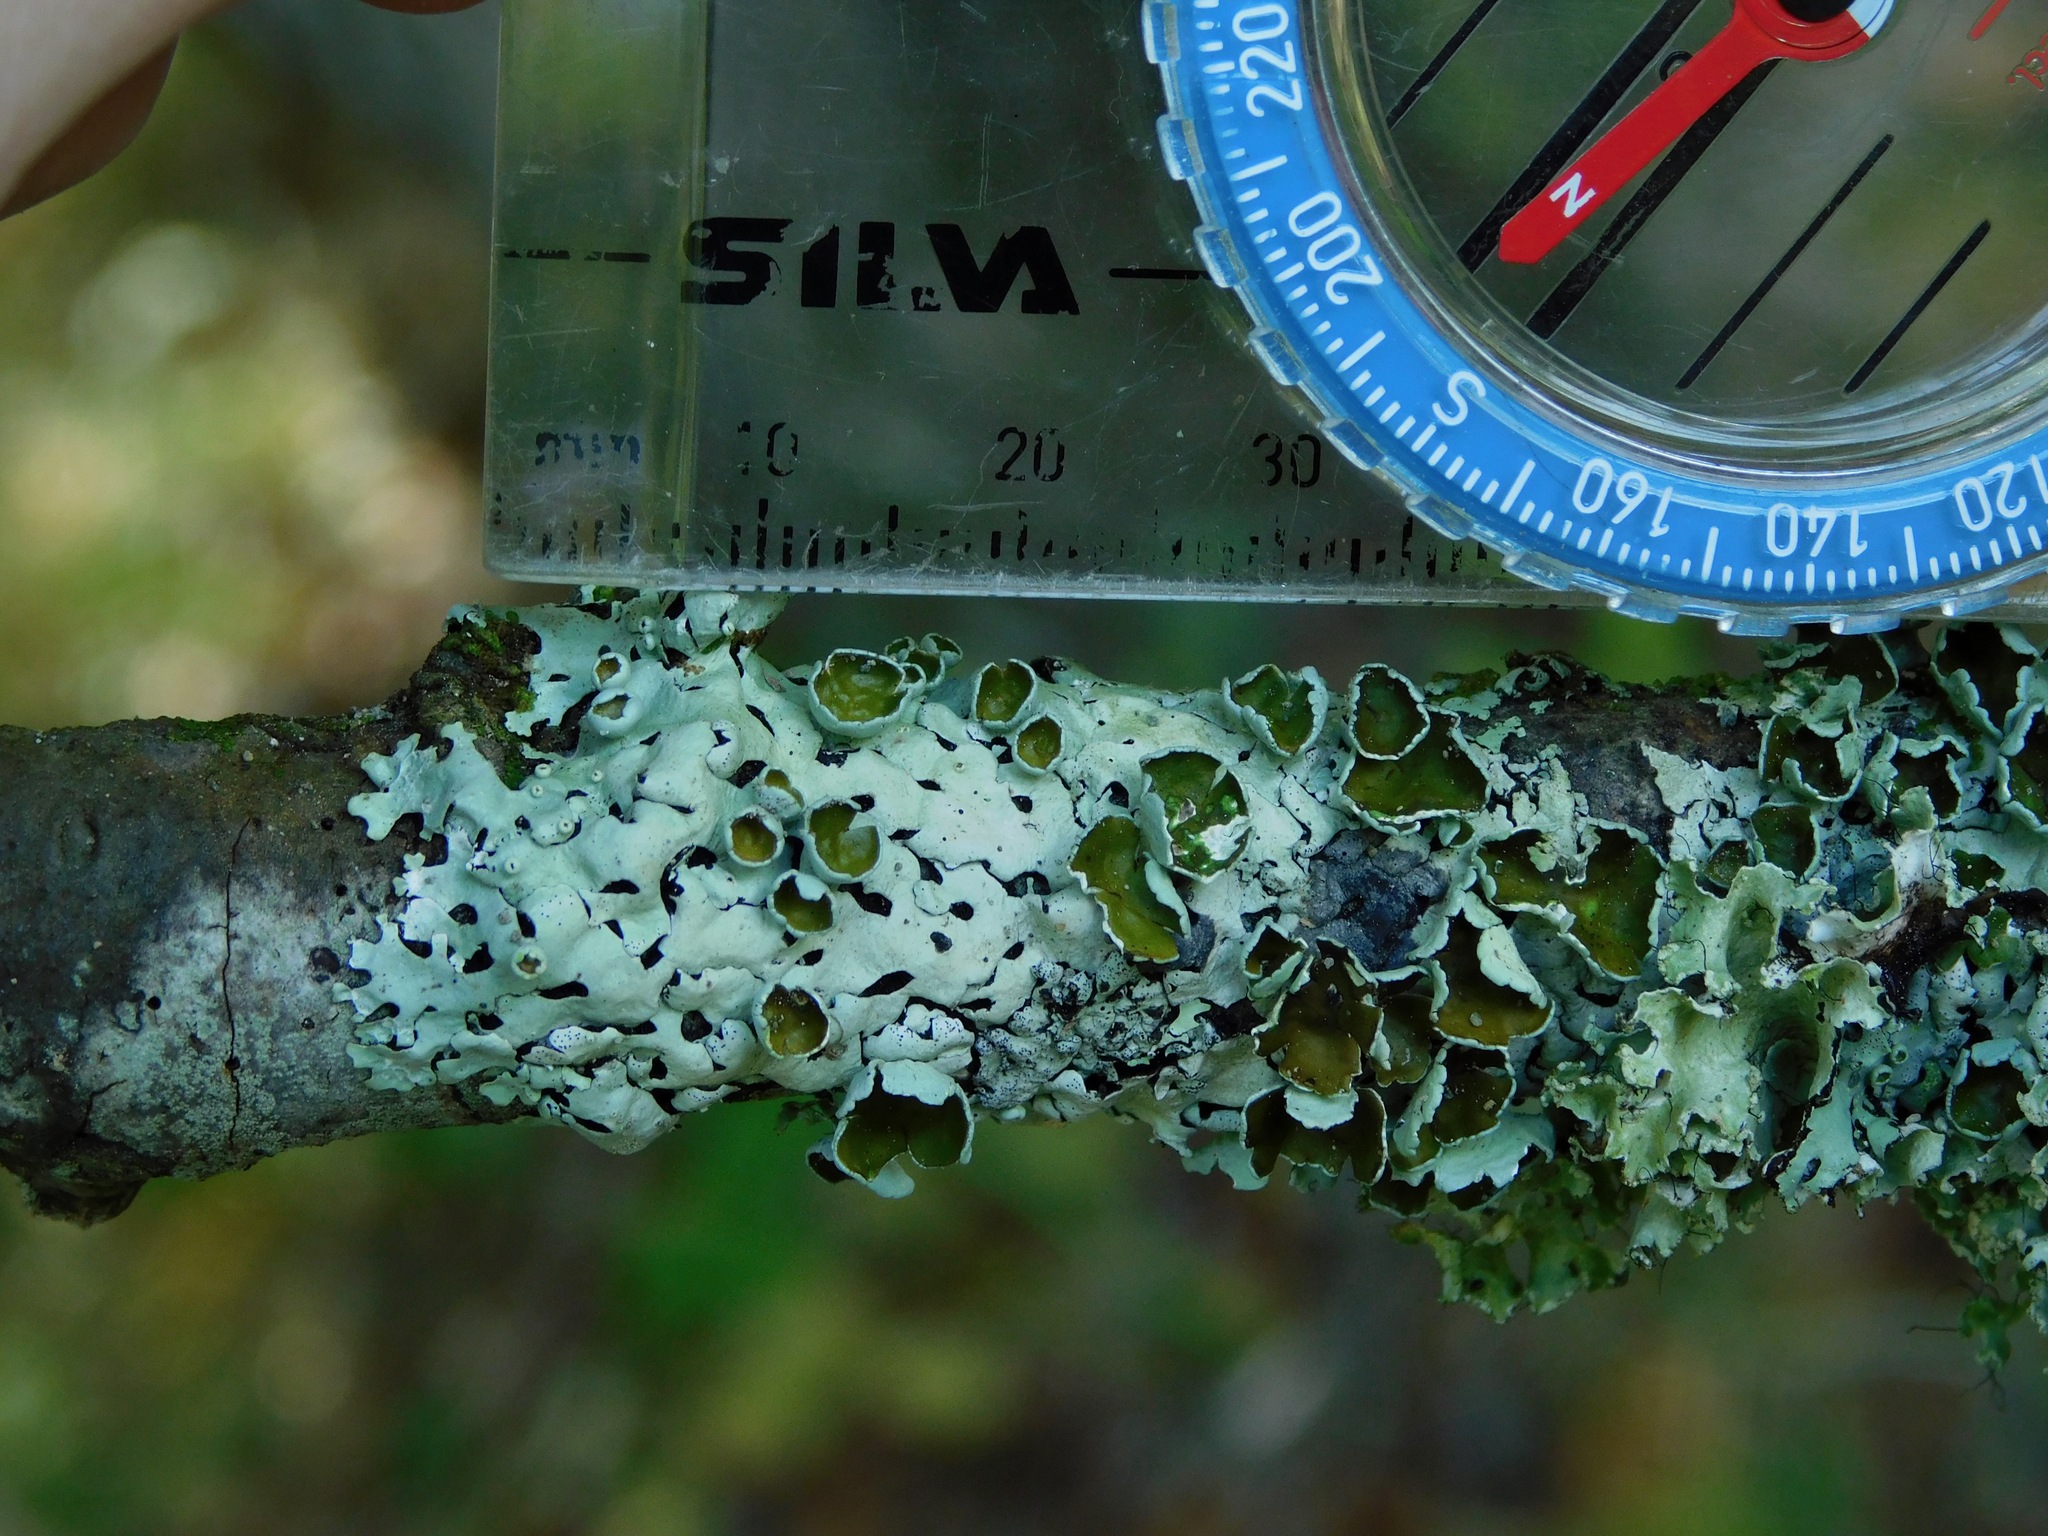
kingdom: Fungi
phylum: Ascomycota
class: Lecanoromycetes
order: Lecanorales
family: Parmeliaceae
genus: Hypotrachyna
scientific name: Hypotrachyna livida
